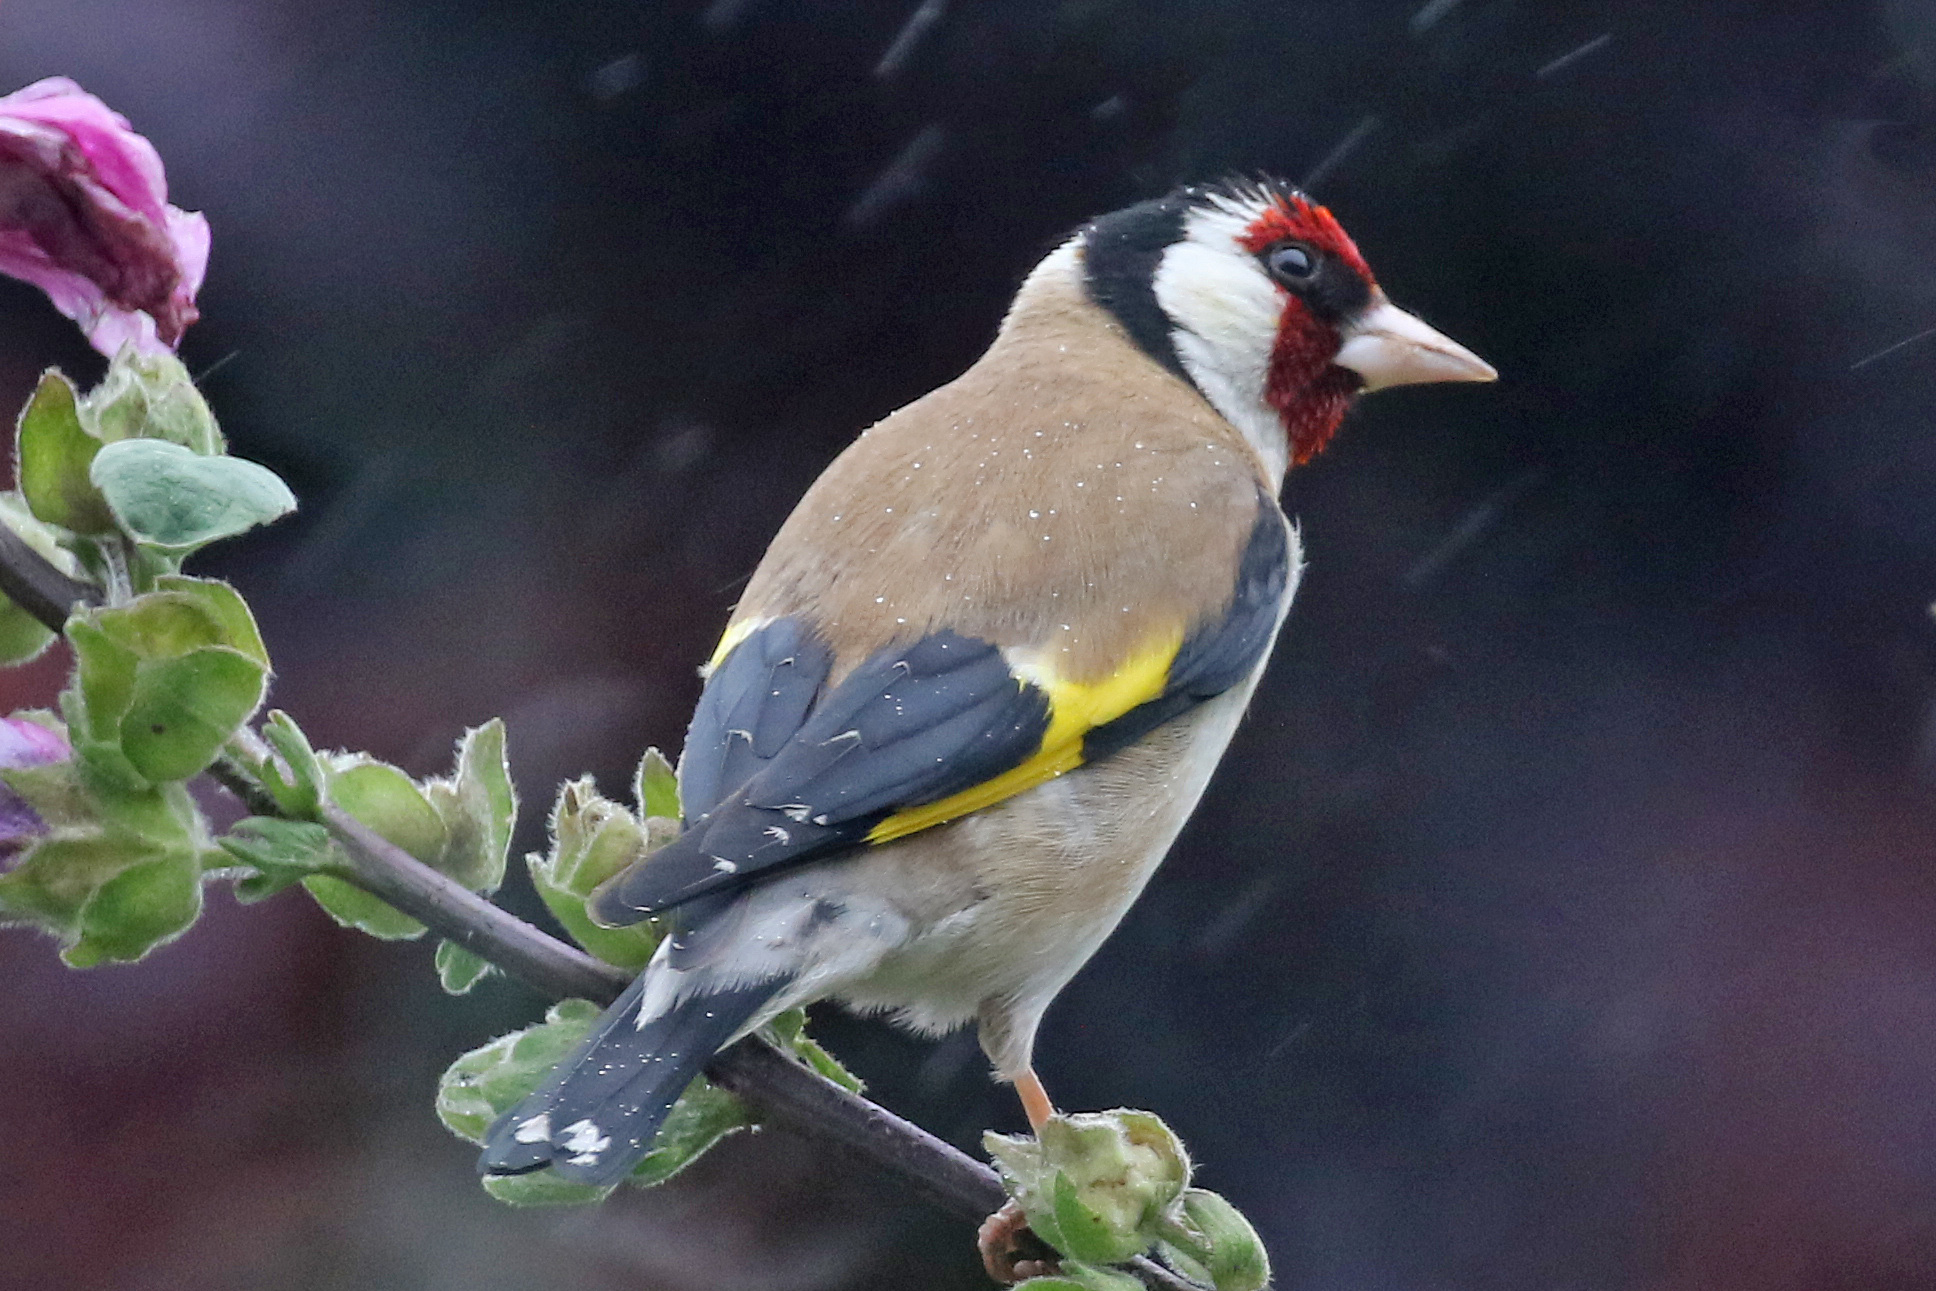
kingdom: Animalia
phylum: Chordata
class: Aves
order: Passeriformes
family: Fringillidae
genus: Carduelis
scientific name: Carduelis carduelis
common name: European goldfinch
